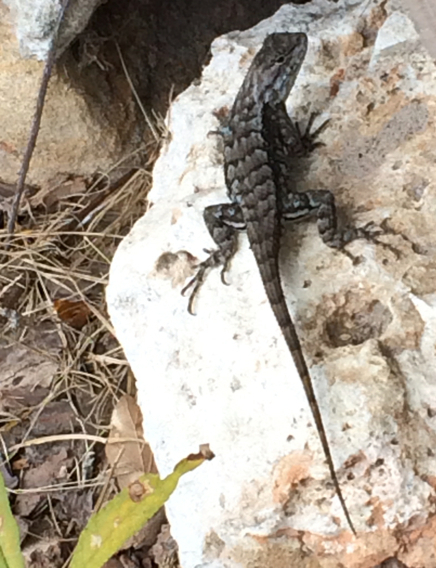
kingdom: Animalia
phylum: Chordata
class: Squamata
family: Phrynosomatidae
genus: Sceloporus
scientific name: Sceloporus consobrinus
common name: Southern prairie lizard
